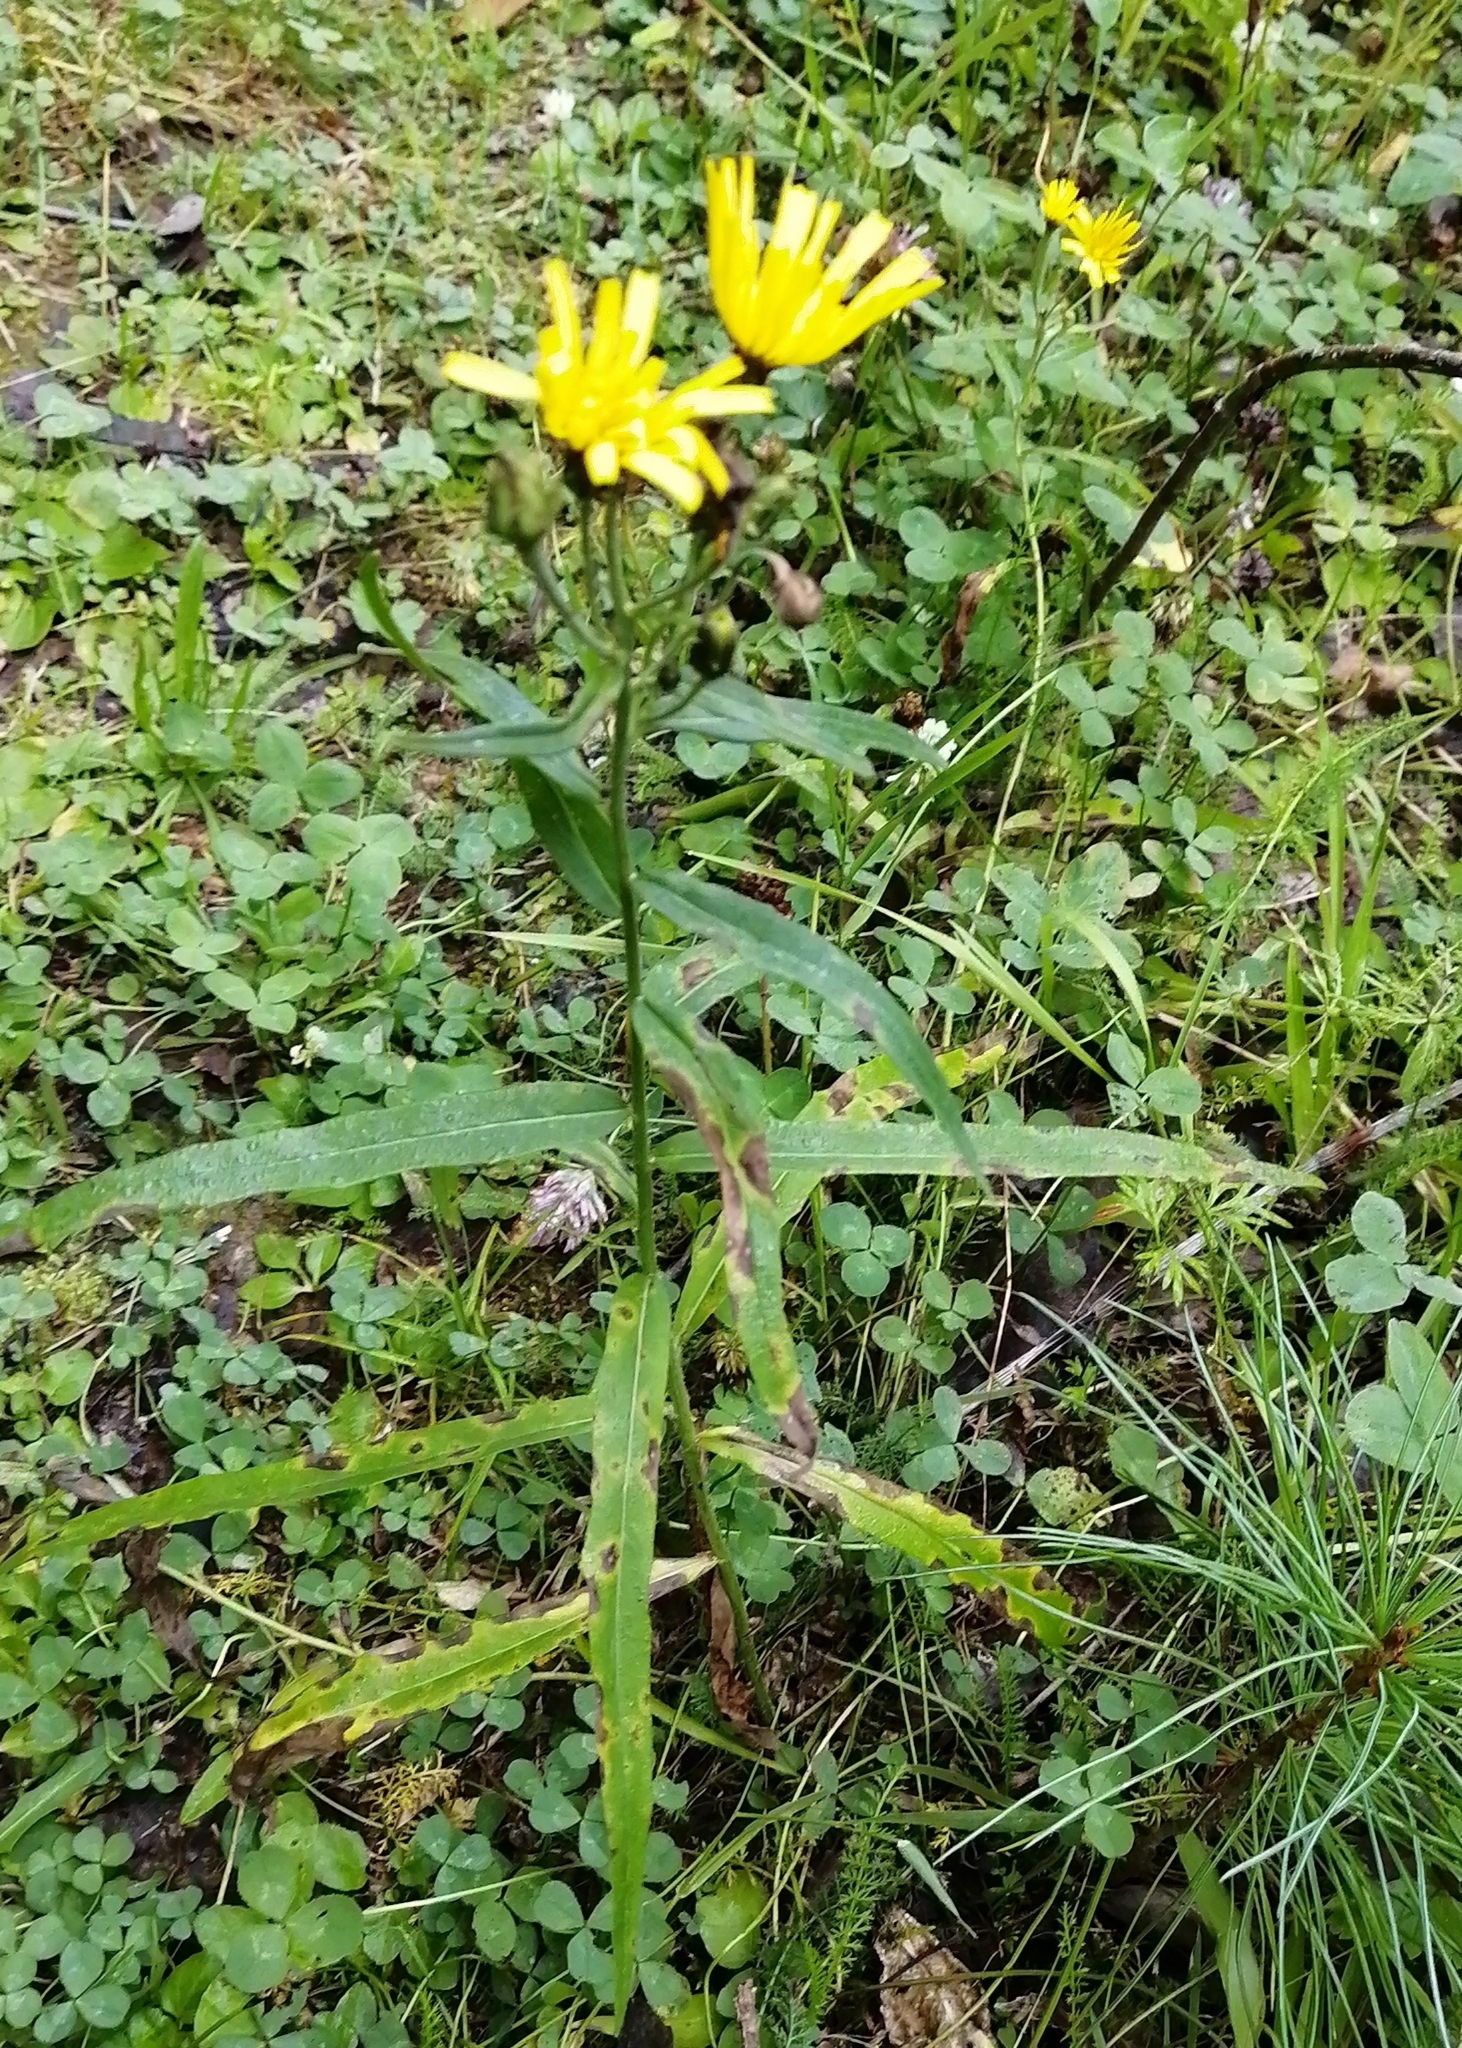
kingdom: Plantae
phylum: Tracheophyta
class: Magnoliopsida
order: Asterales
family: Asteraceae
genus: Hieracium
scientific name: Hieracium umbellatum
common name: Northern hawkweed
